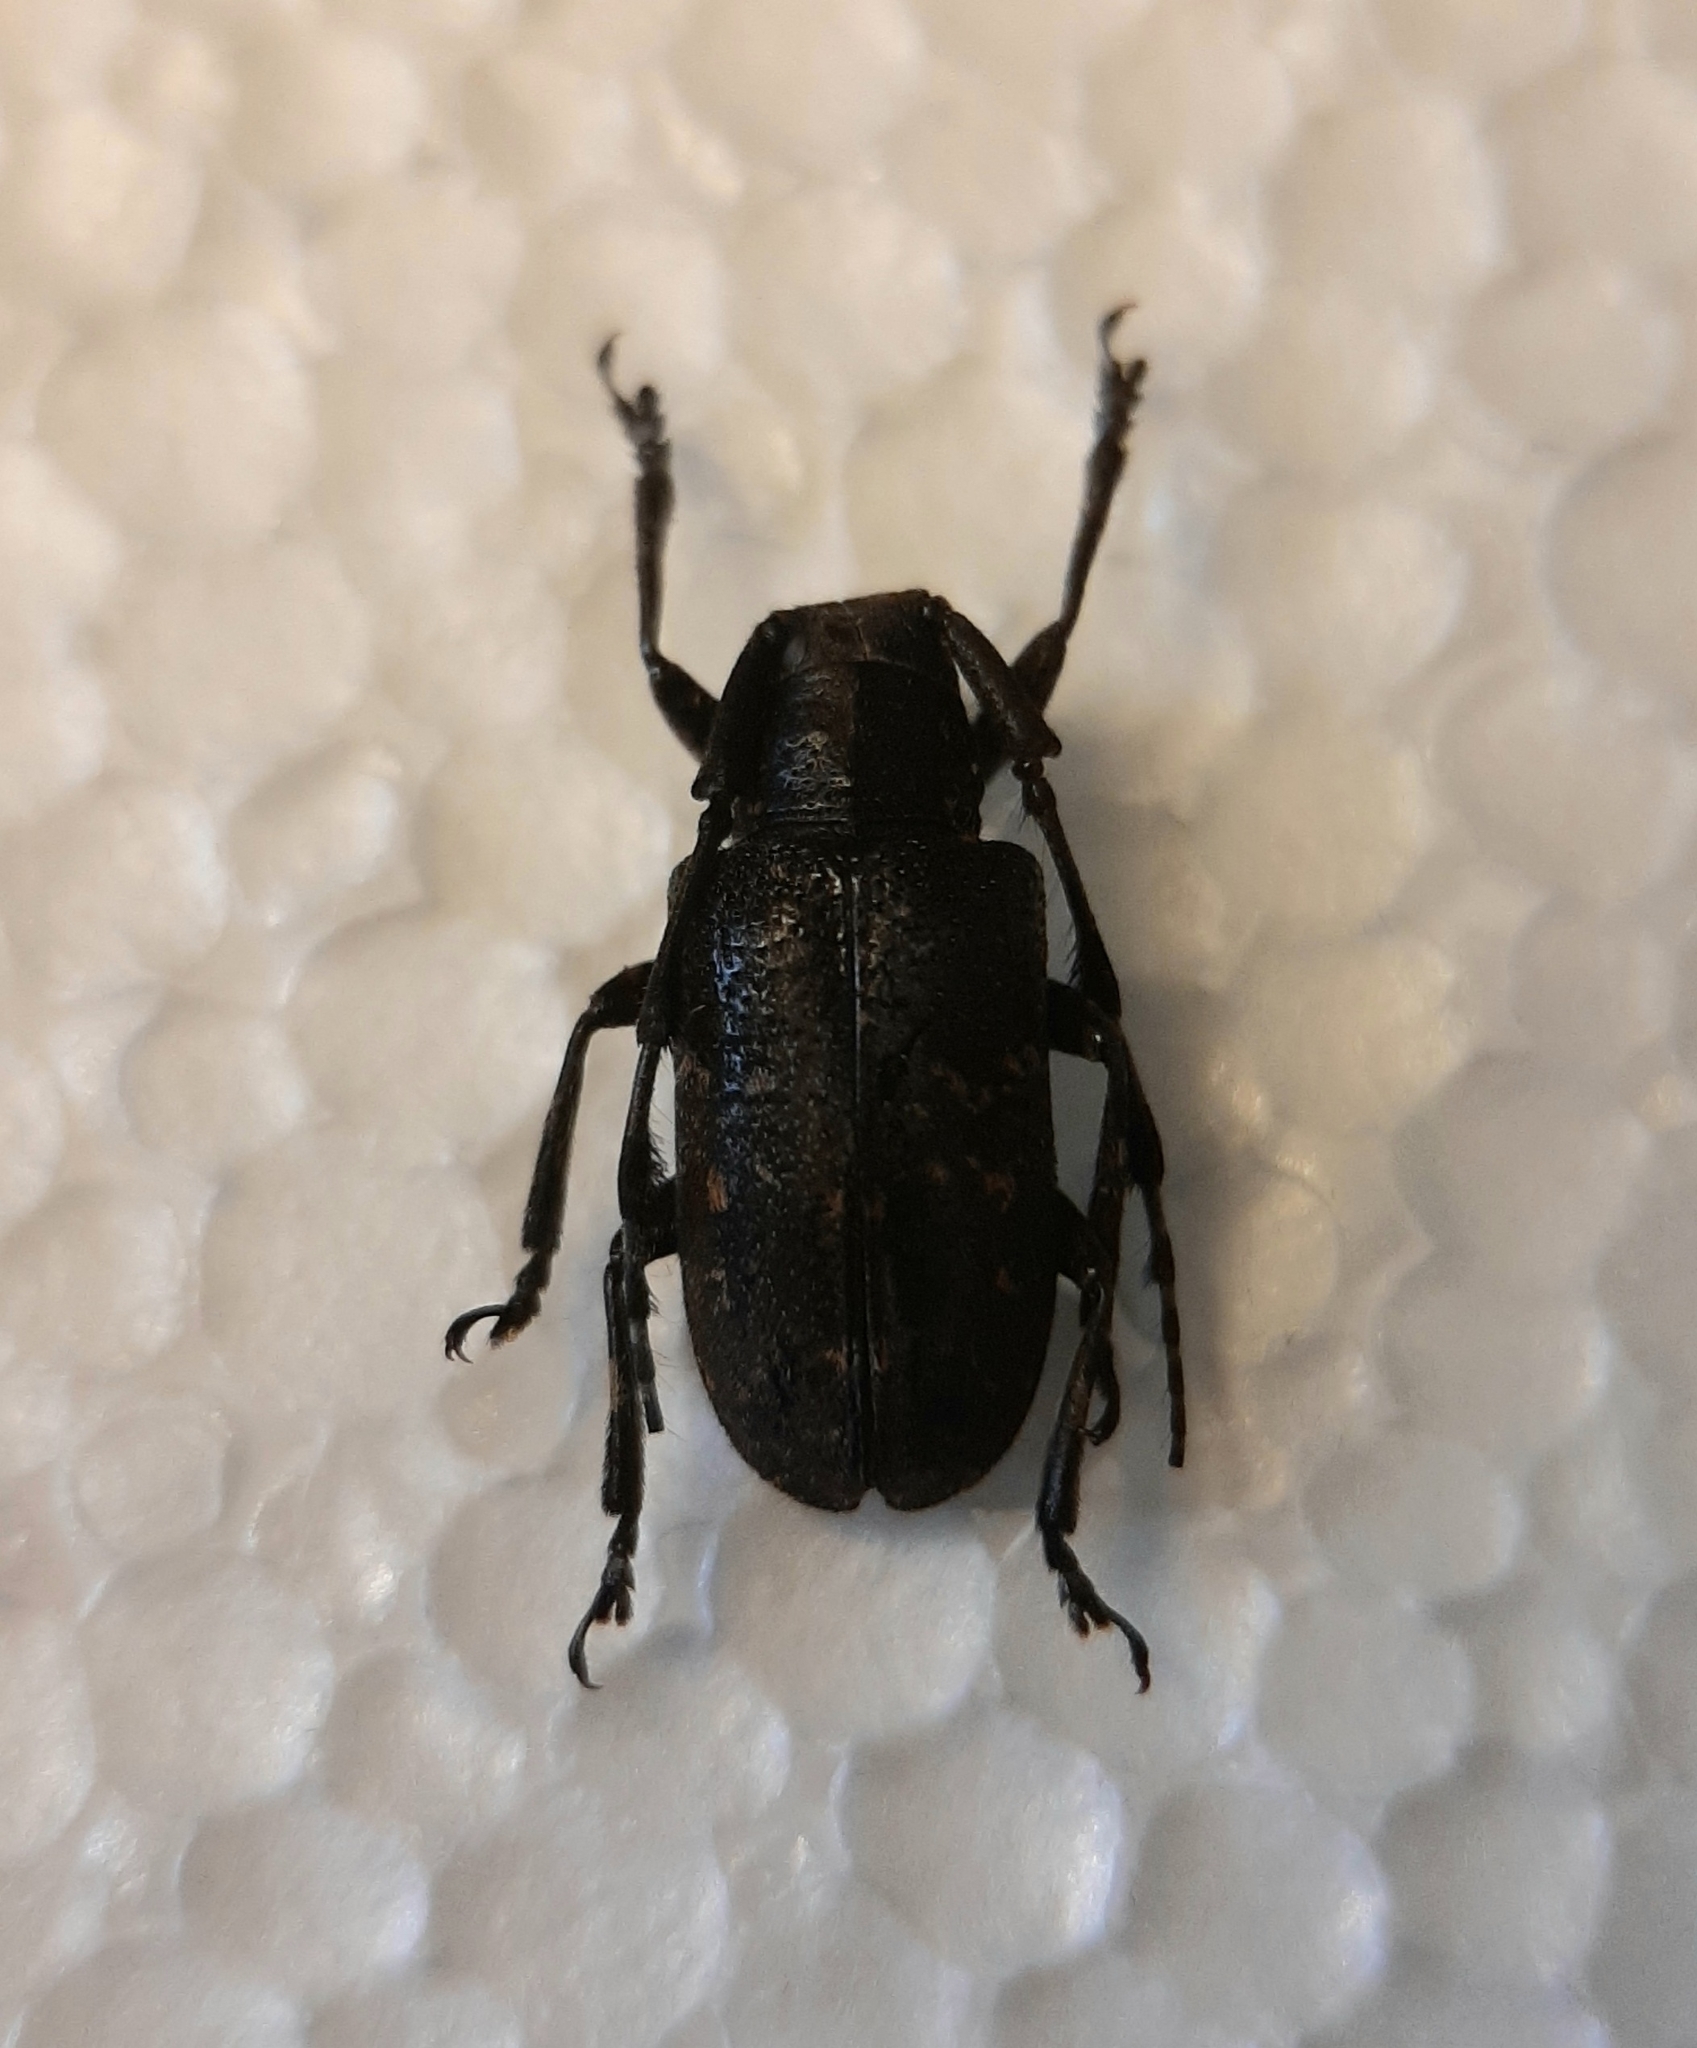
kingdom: Animalia
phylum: Arthropoda
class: Insecta
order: Coleoptera
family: Cerambycidae
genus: Cacia
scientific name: Cacia cretifera
